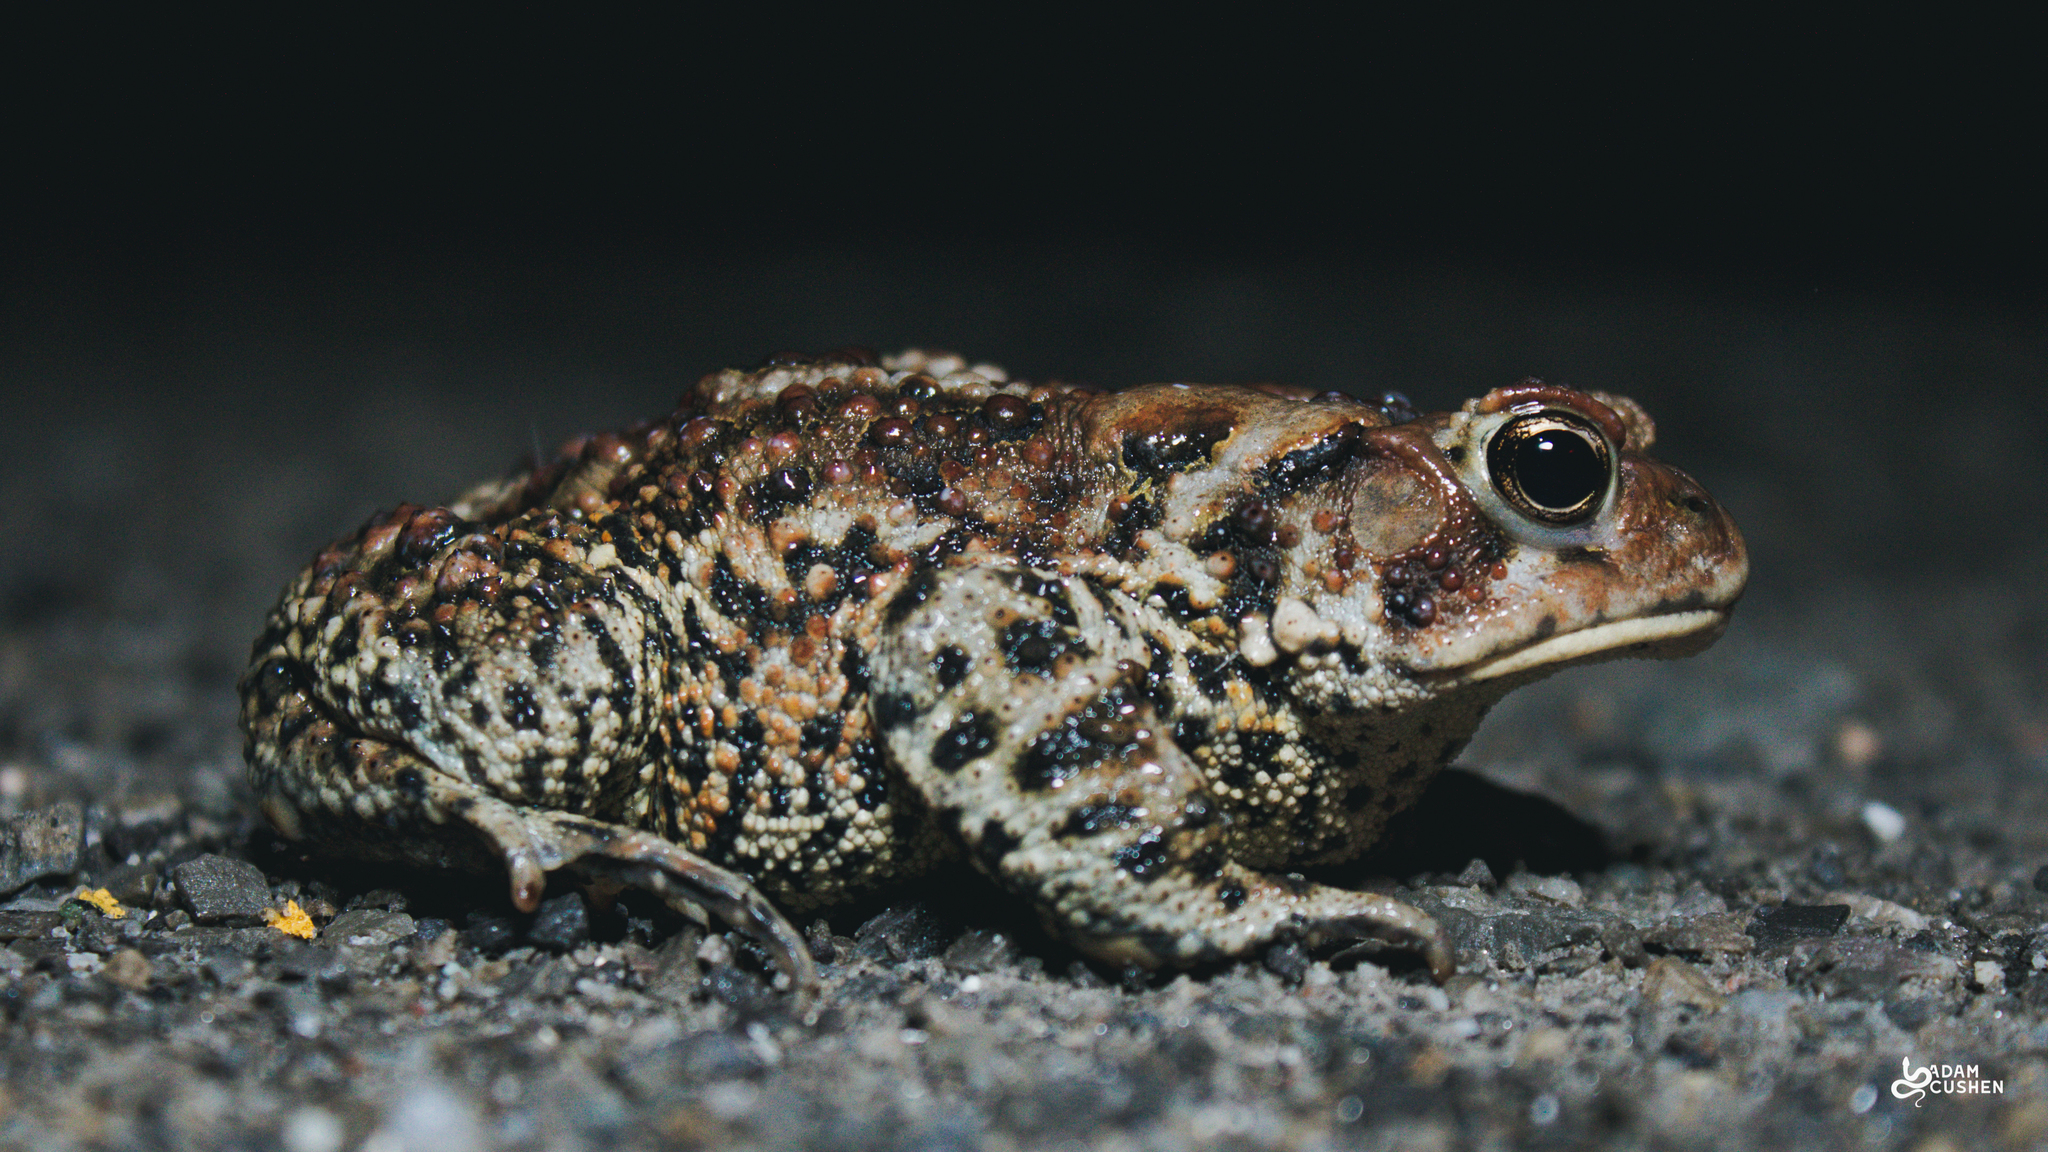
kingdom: Animalia
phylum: Chordata
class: Amphibia
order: Anura
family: Bufonidae
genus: Anaxyrus
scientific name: Anaxyrus americanus
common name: American toad
